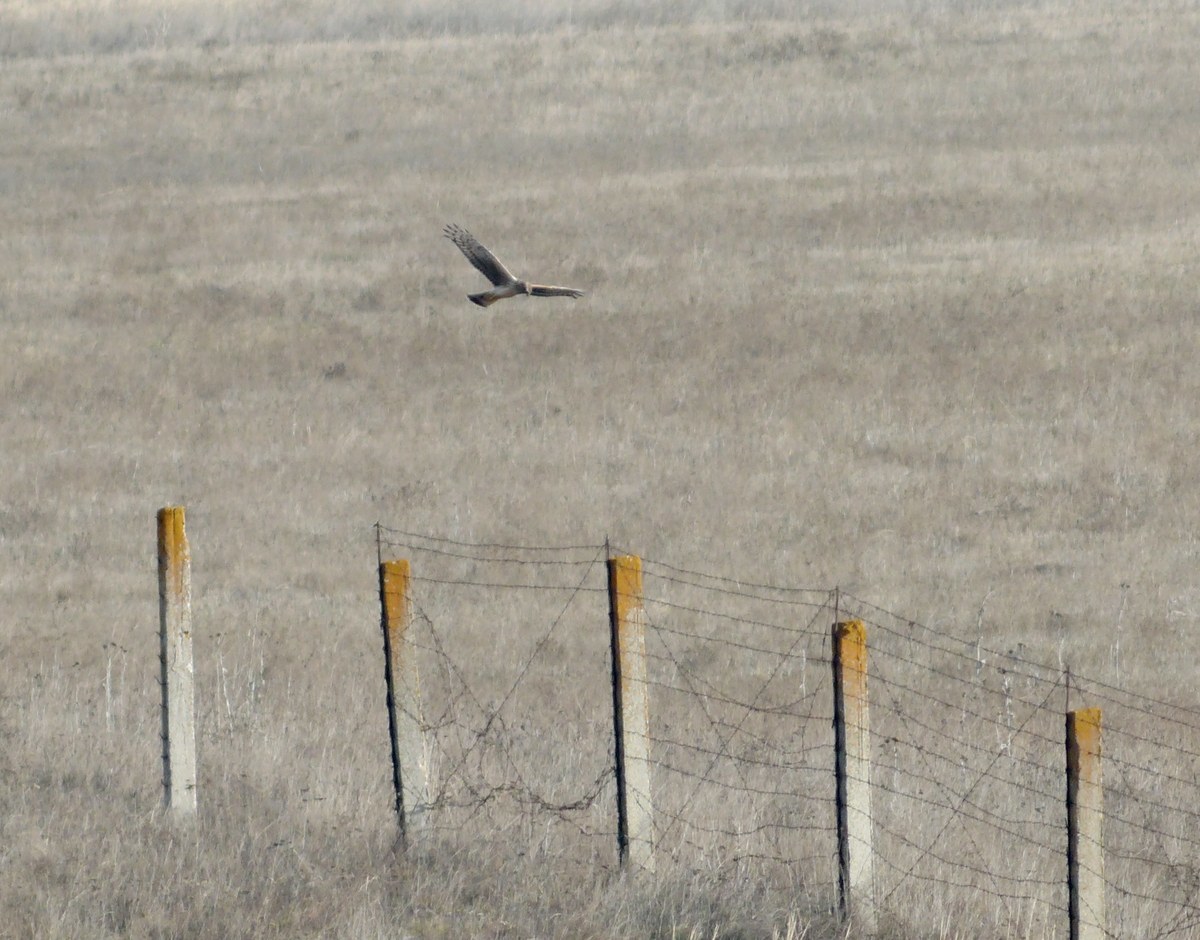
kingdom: Animalia
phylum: Chordata
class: Aves
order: Accipitriformes
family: Accipitridae
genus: Circus
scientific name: Circus cyaneus
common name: Hen harrier
